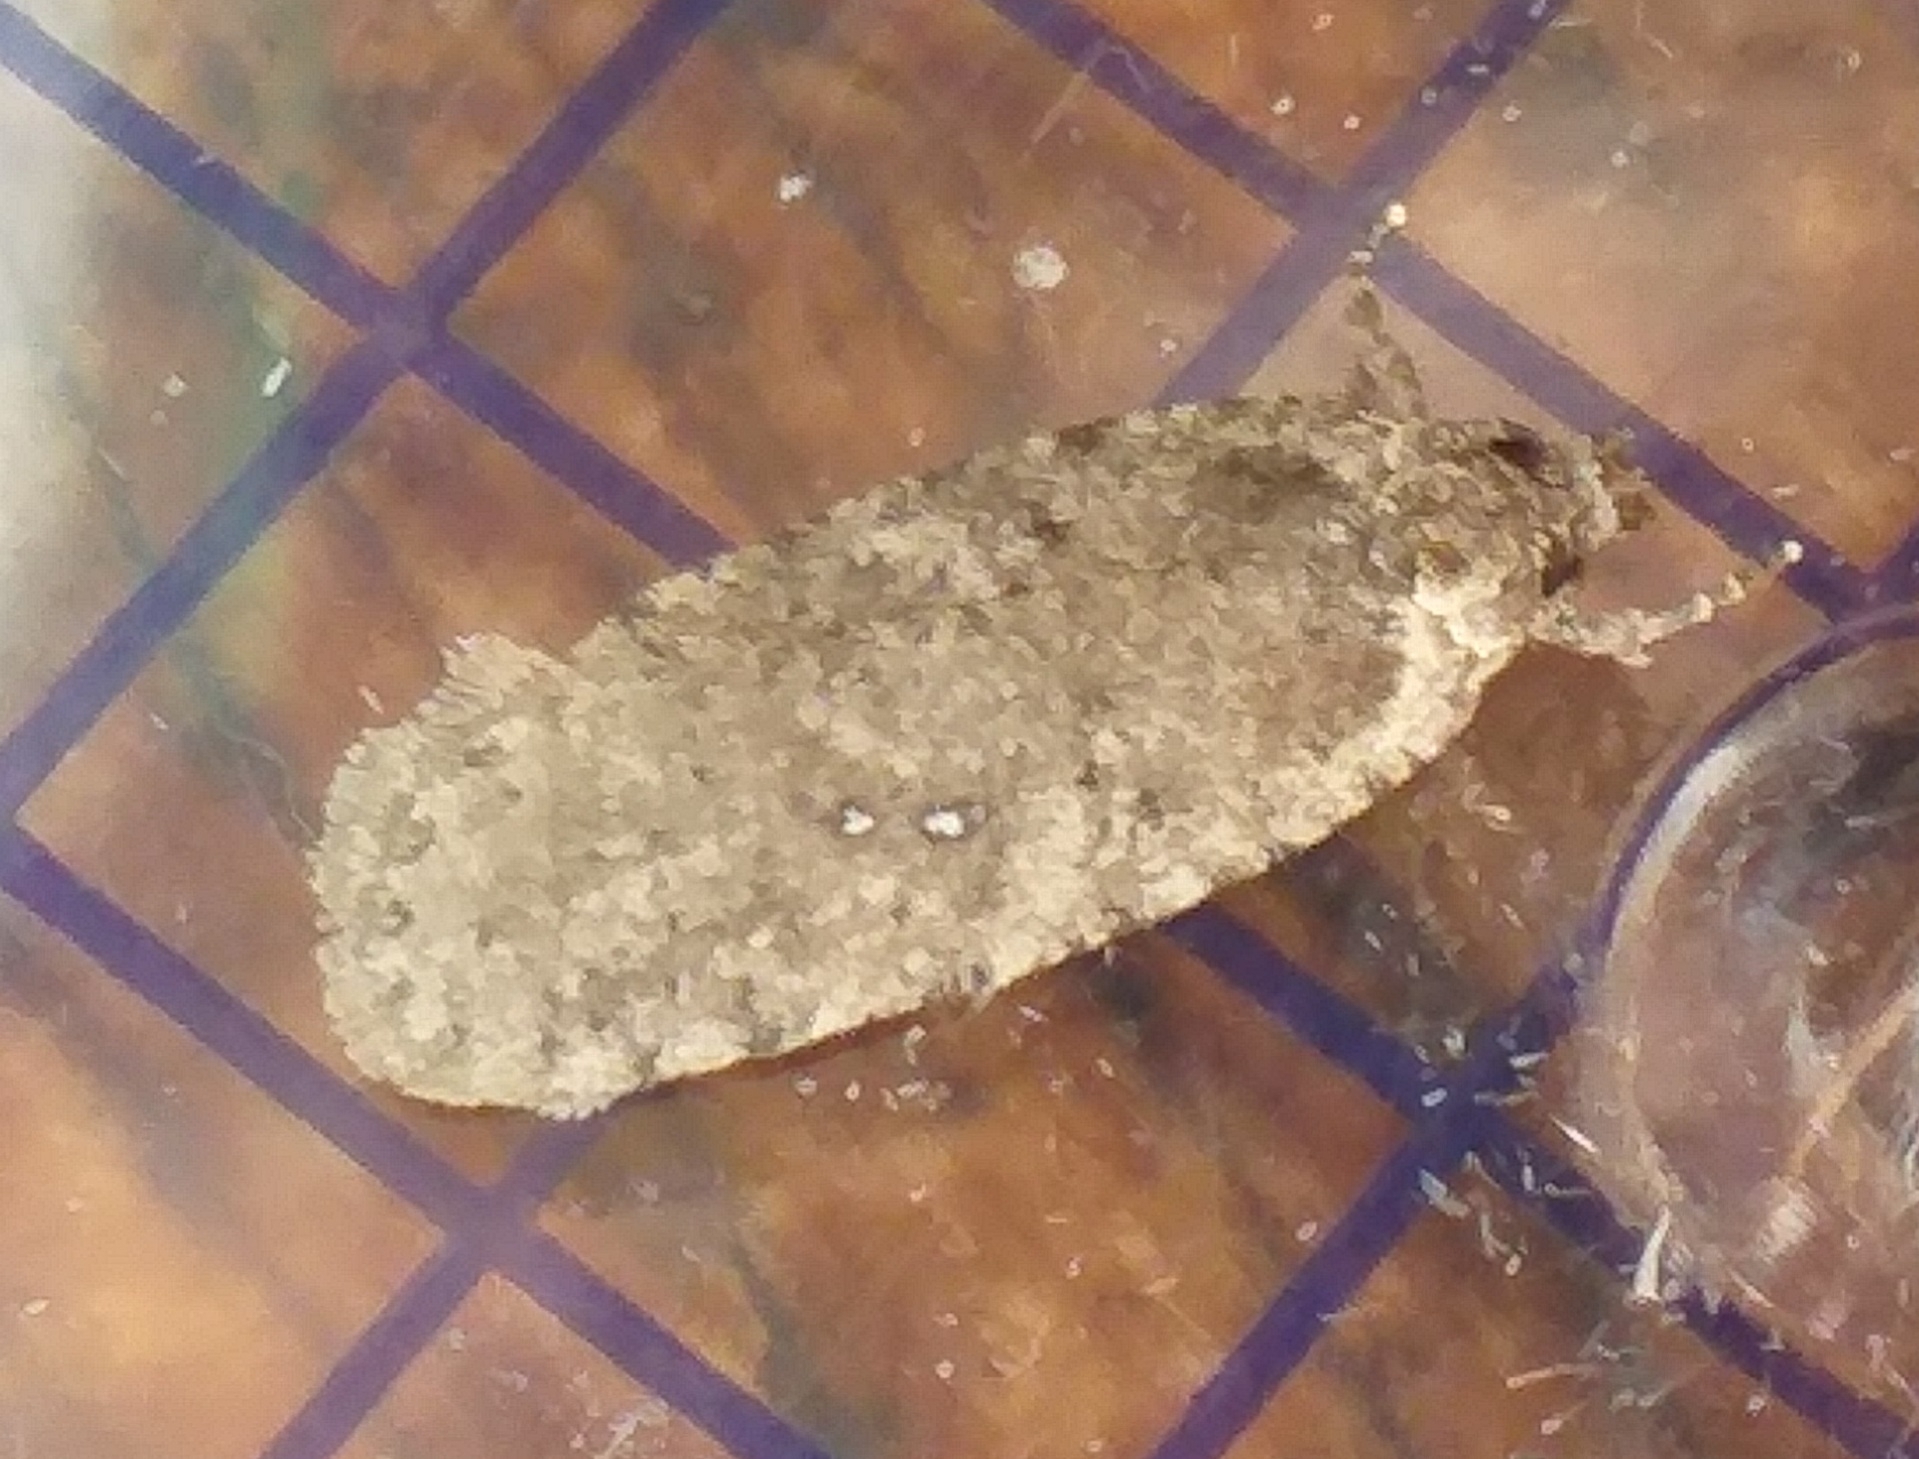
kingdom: Animalia
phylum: Arthropoda
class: Insecta
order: Lepidoptera
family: Depressariidae
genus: Agonopterix
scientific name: Agonopterix
